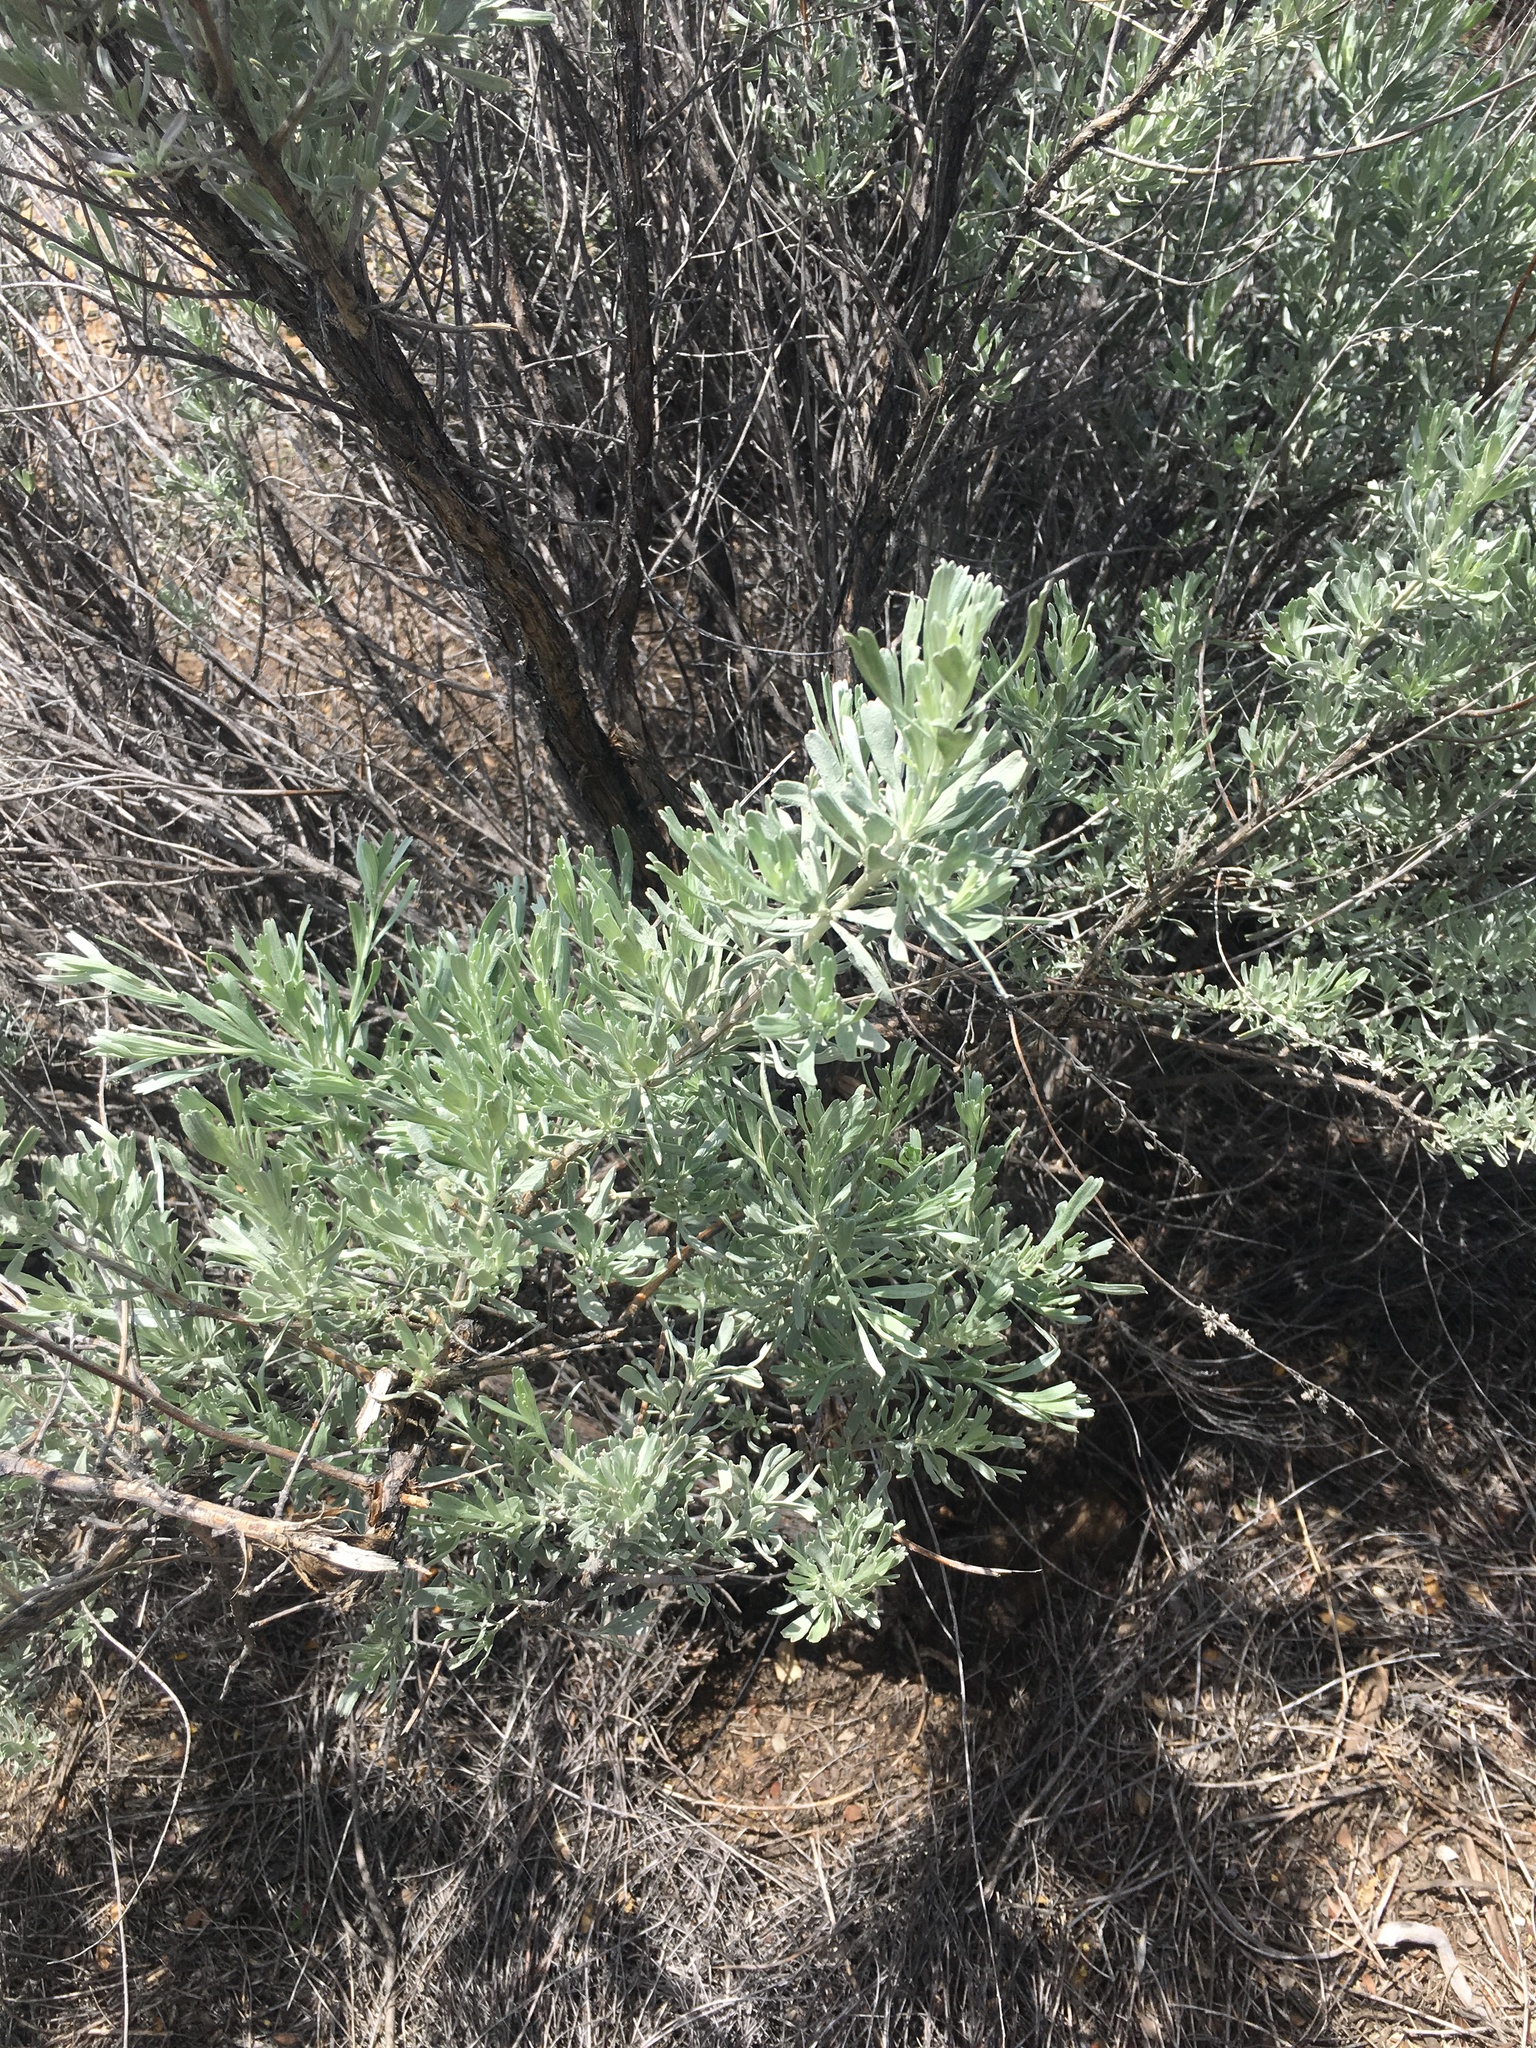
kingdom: Plantae
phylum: Tracheophyta
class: Magnoliopsida
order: Asterales
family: Asteraceae
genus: Artemisia
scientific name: Artemisia tridentata
